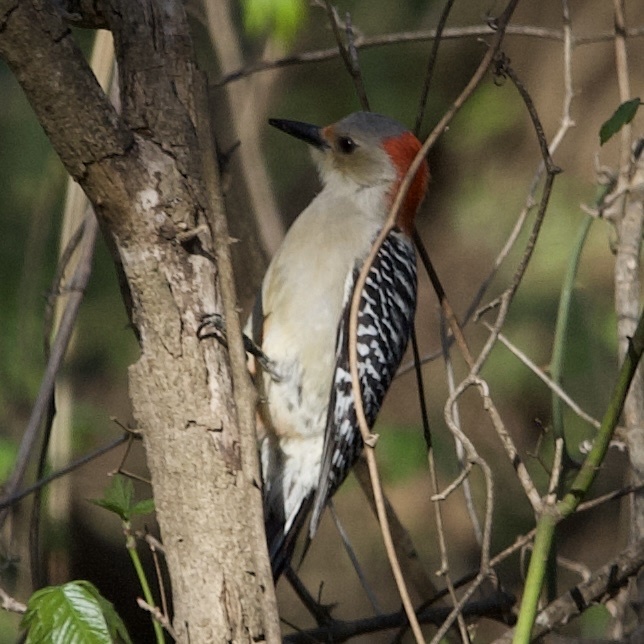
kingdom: Animalia
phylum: Chordata
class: Aves
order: Piciformes
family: Picidae
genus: Melanerpes
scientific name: Melanerpes carolinus
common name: Red-bellied woodpecker
